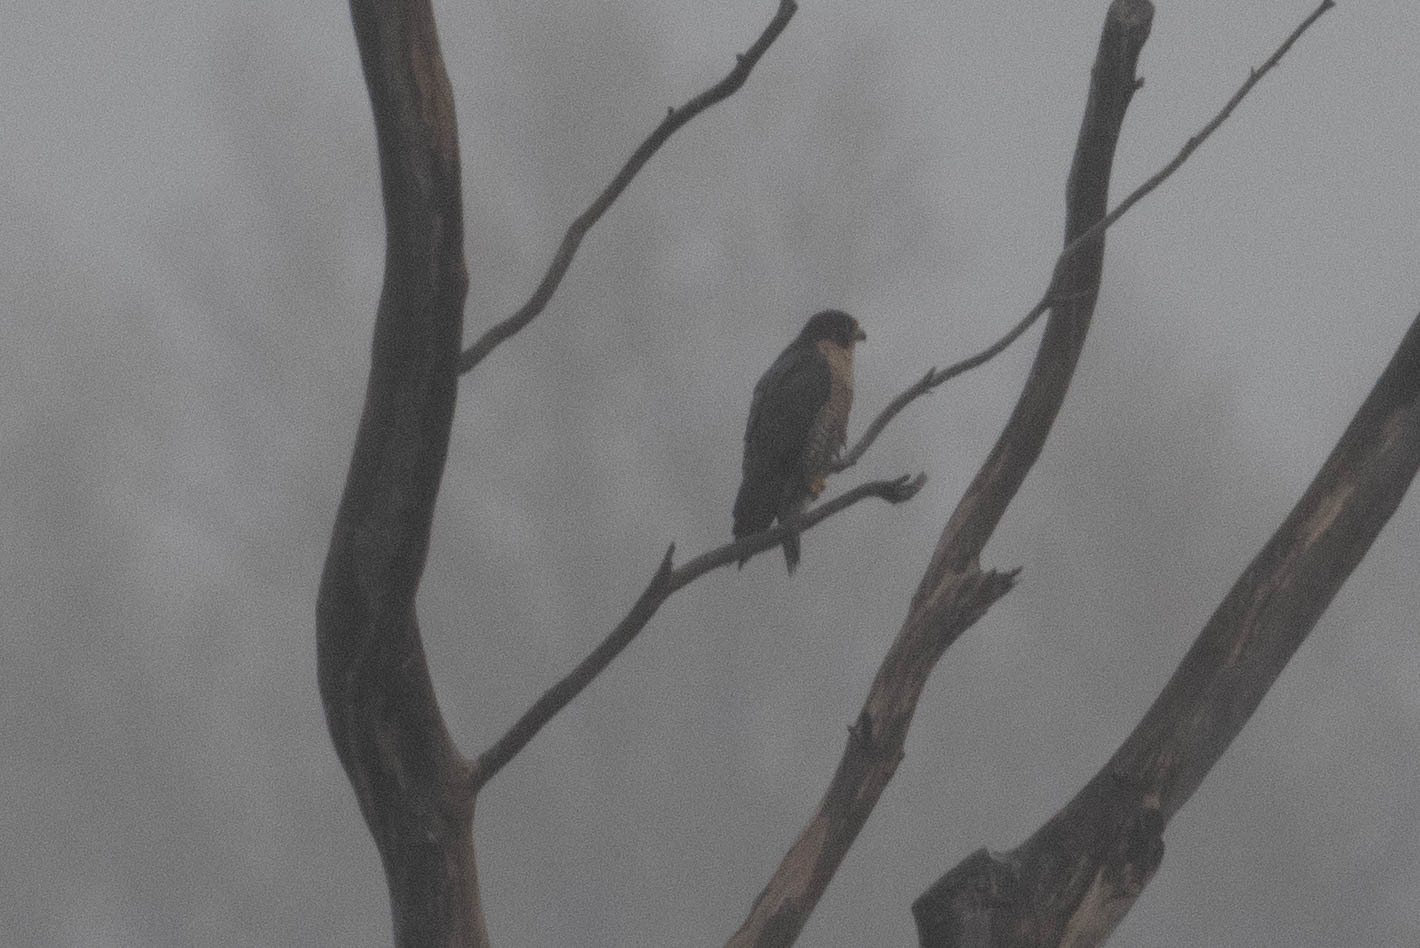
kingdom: Animalia
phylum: Chordata
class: Aves
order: Falconiformes
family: Falconidae
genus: Falco
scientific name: Falco peregrinus
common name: Peregrine falcon
